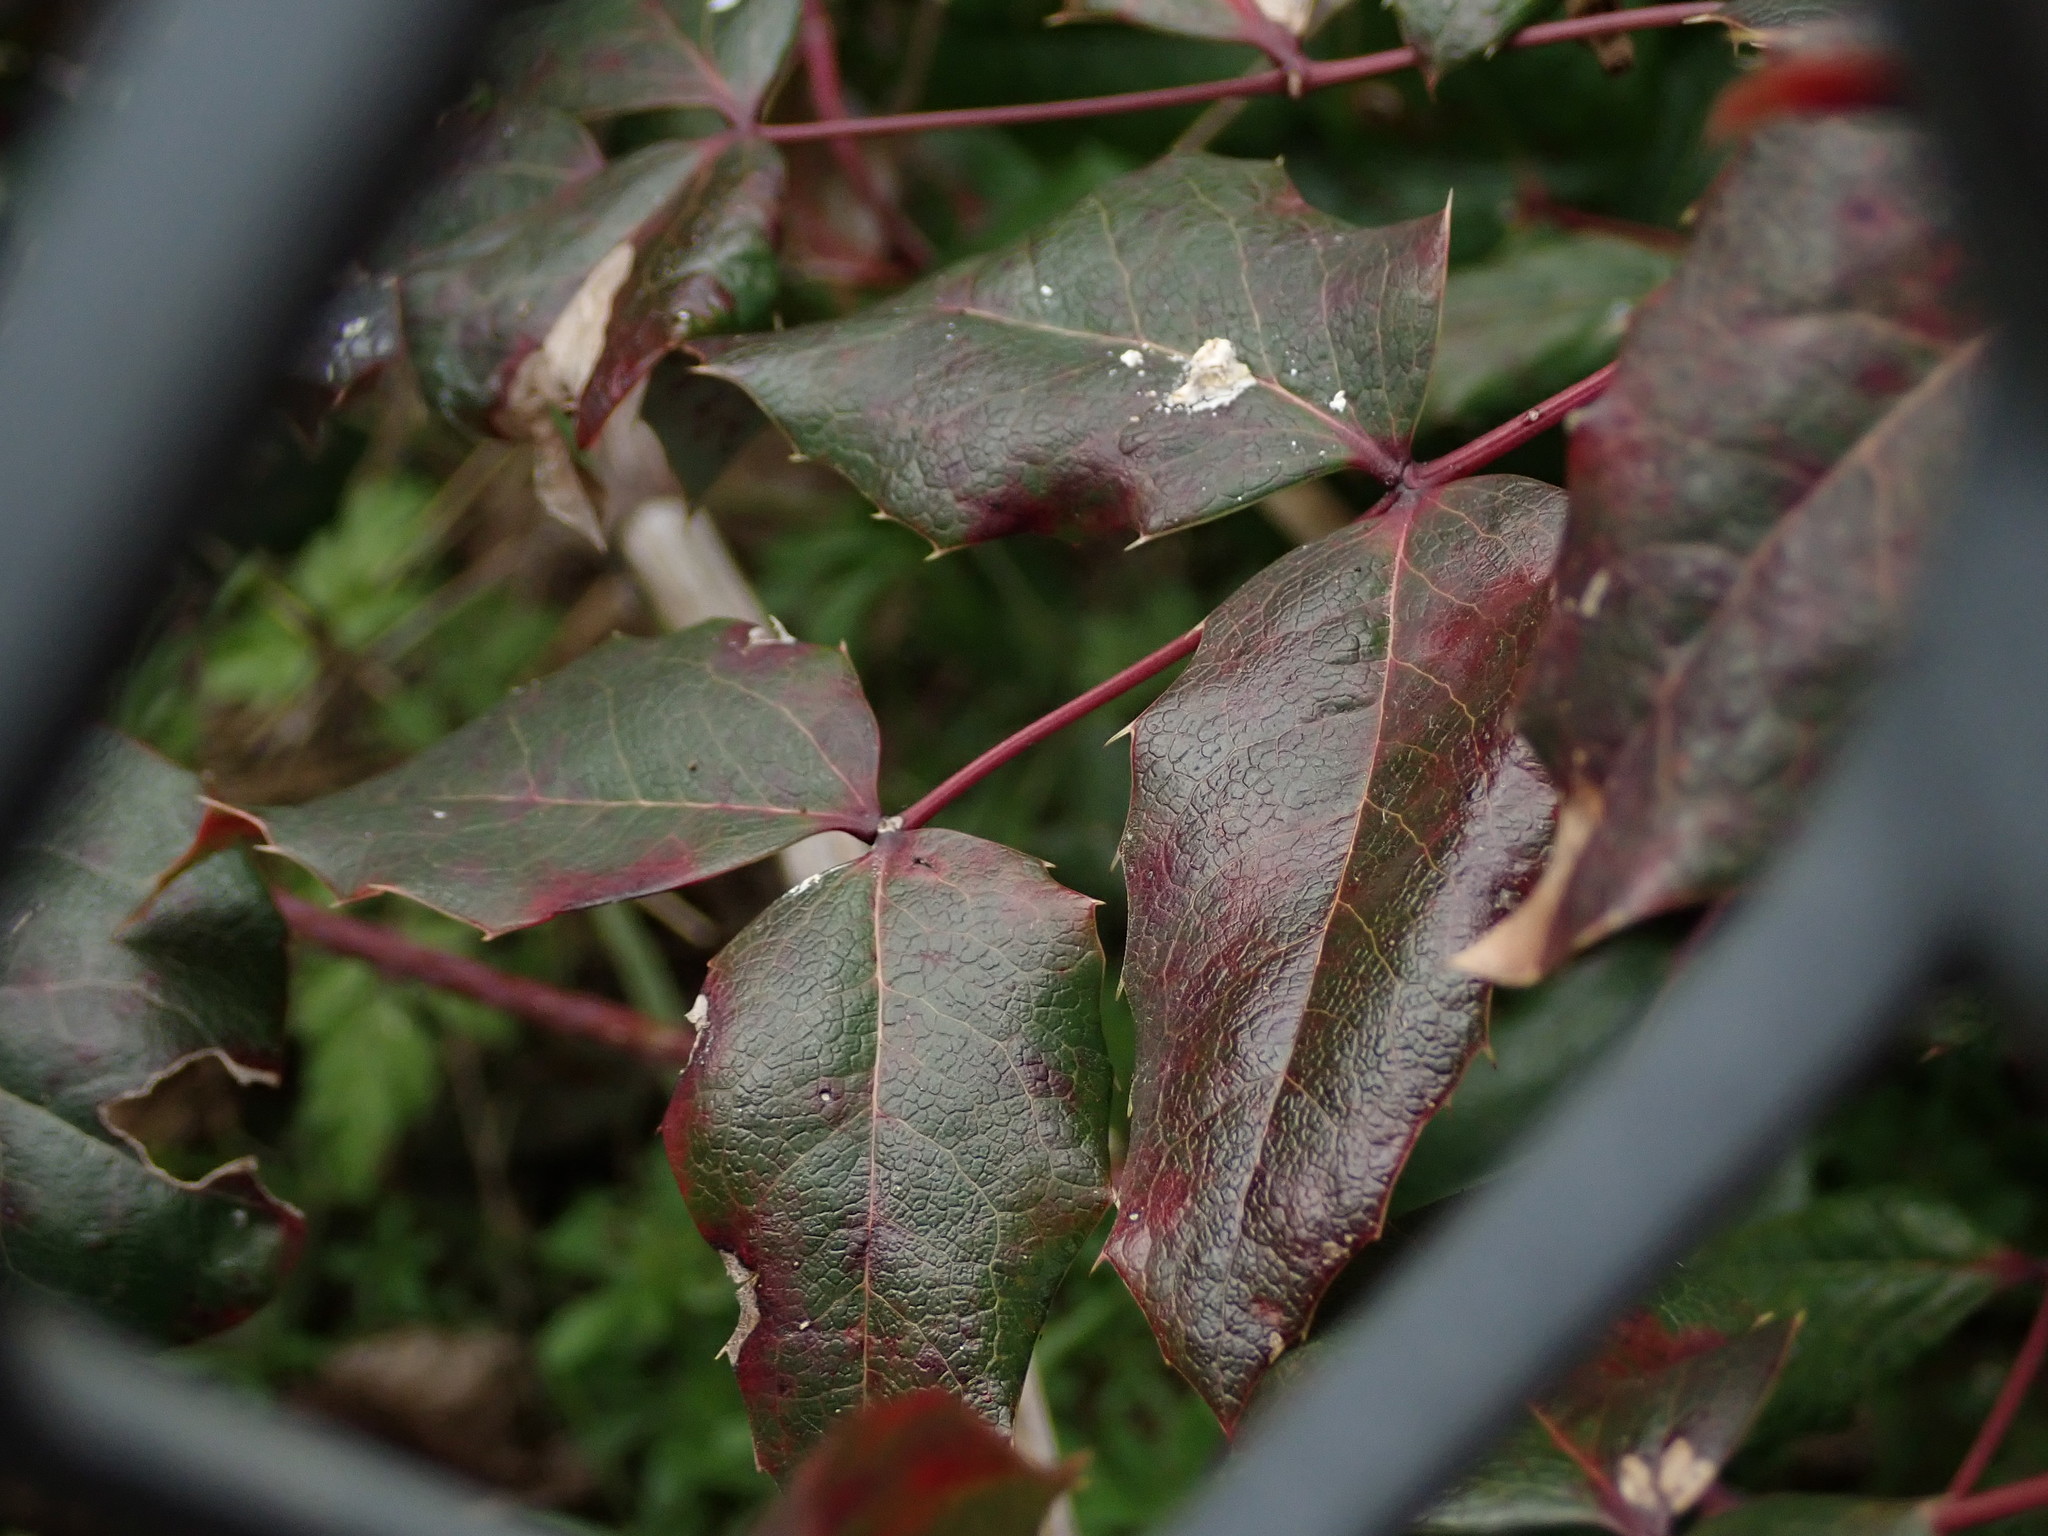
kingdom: Plantae
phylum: Tracheophyta
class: Magnoliopsida
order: Ranunculales
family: Berberidaceae
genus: Mahonia
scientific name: Mahonia aquifolium
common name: Oregon-grape
